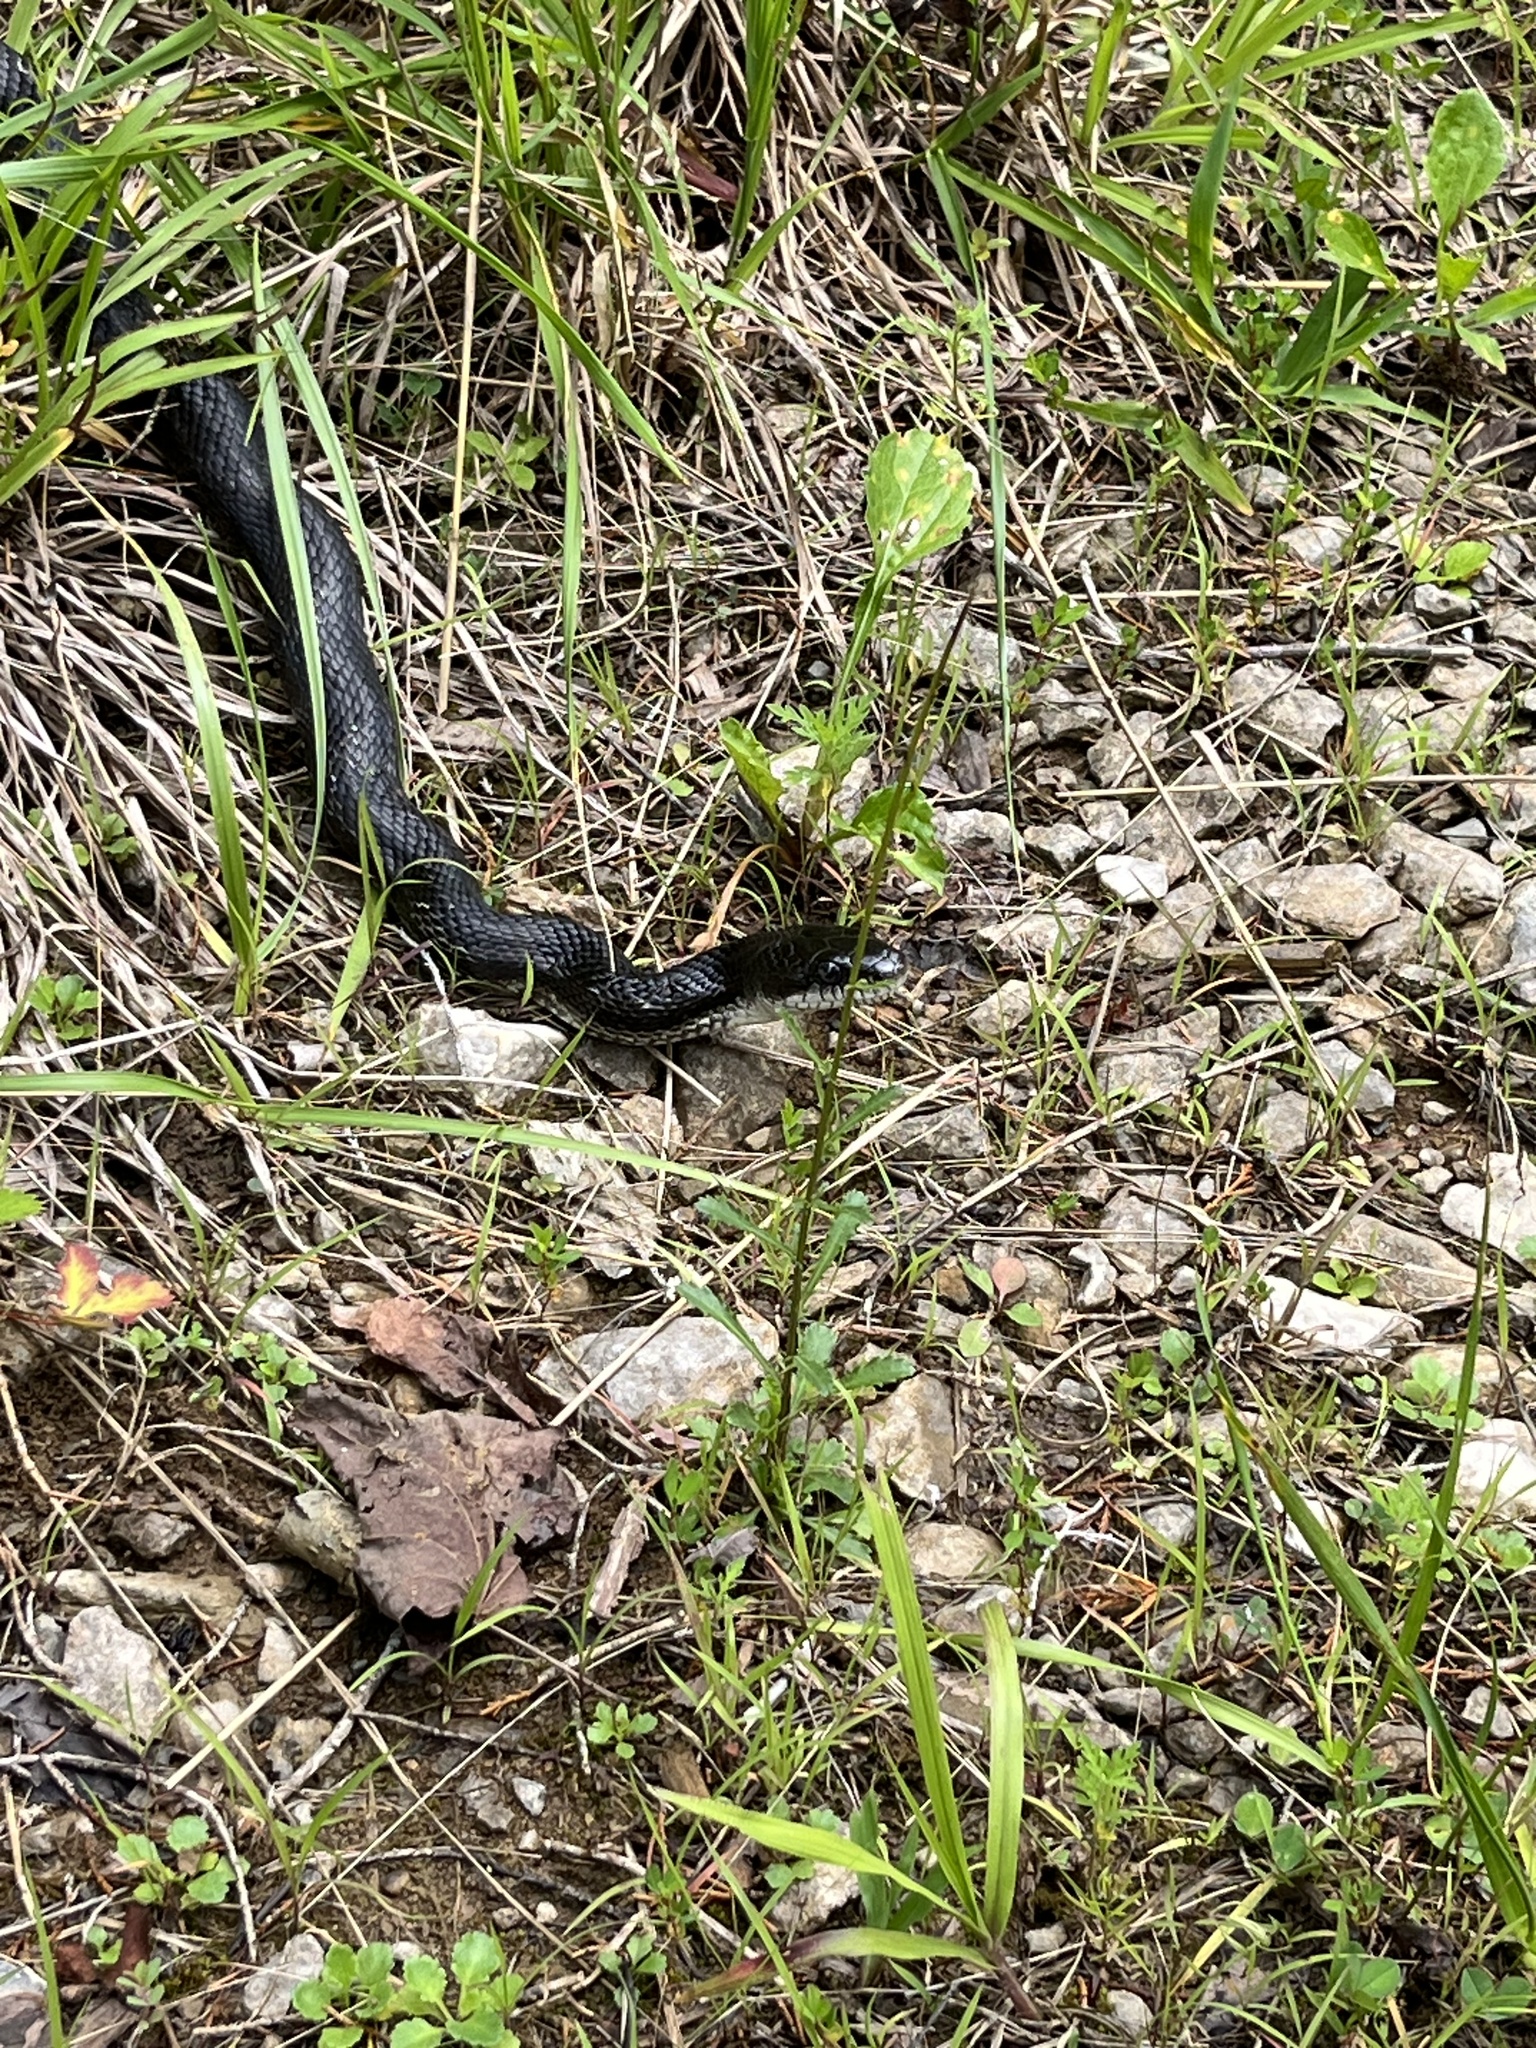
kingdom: Animalia
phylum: Chordata
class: Squamata
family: Colubridae
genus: Pantherophis
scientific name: Pantherophis spiloides
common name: Gray rat snake
